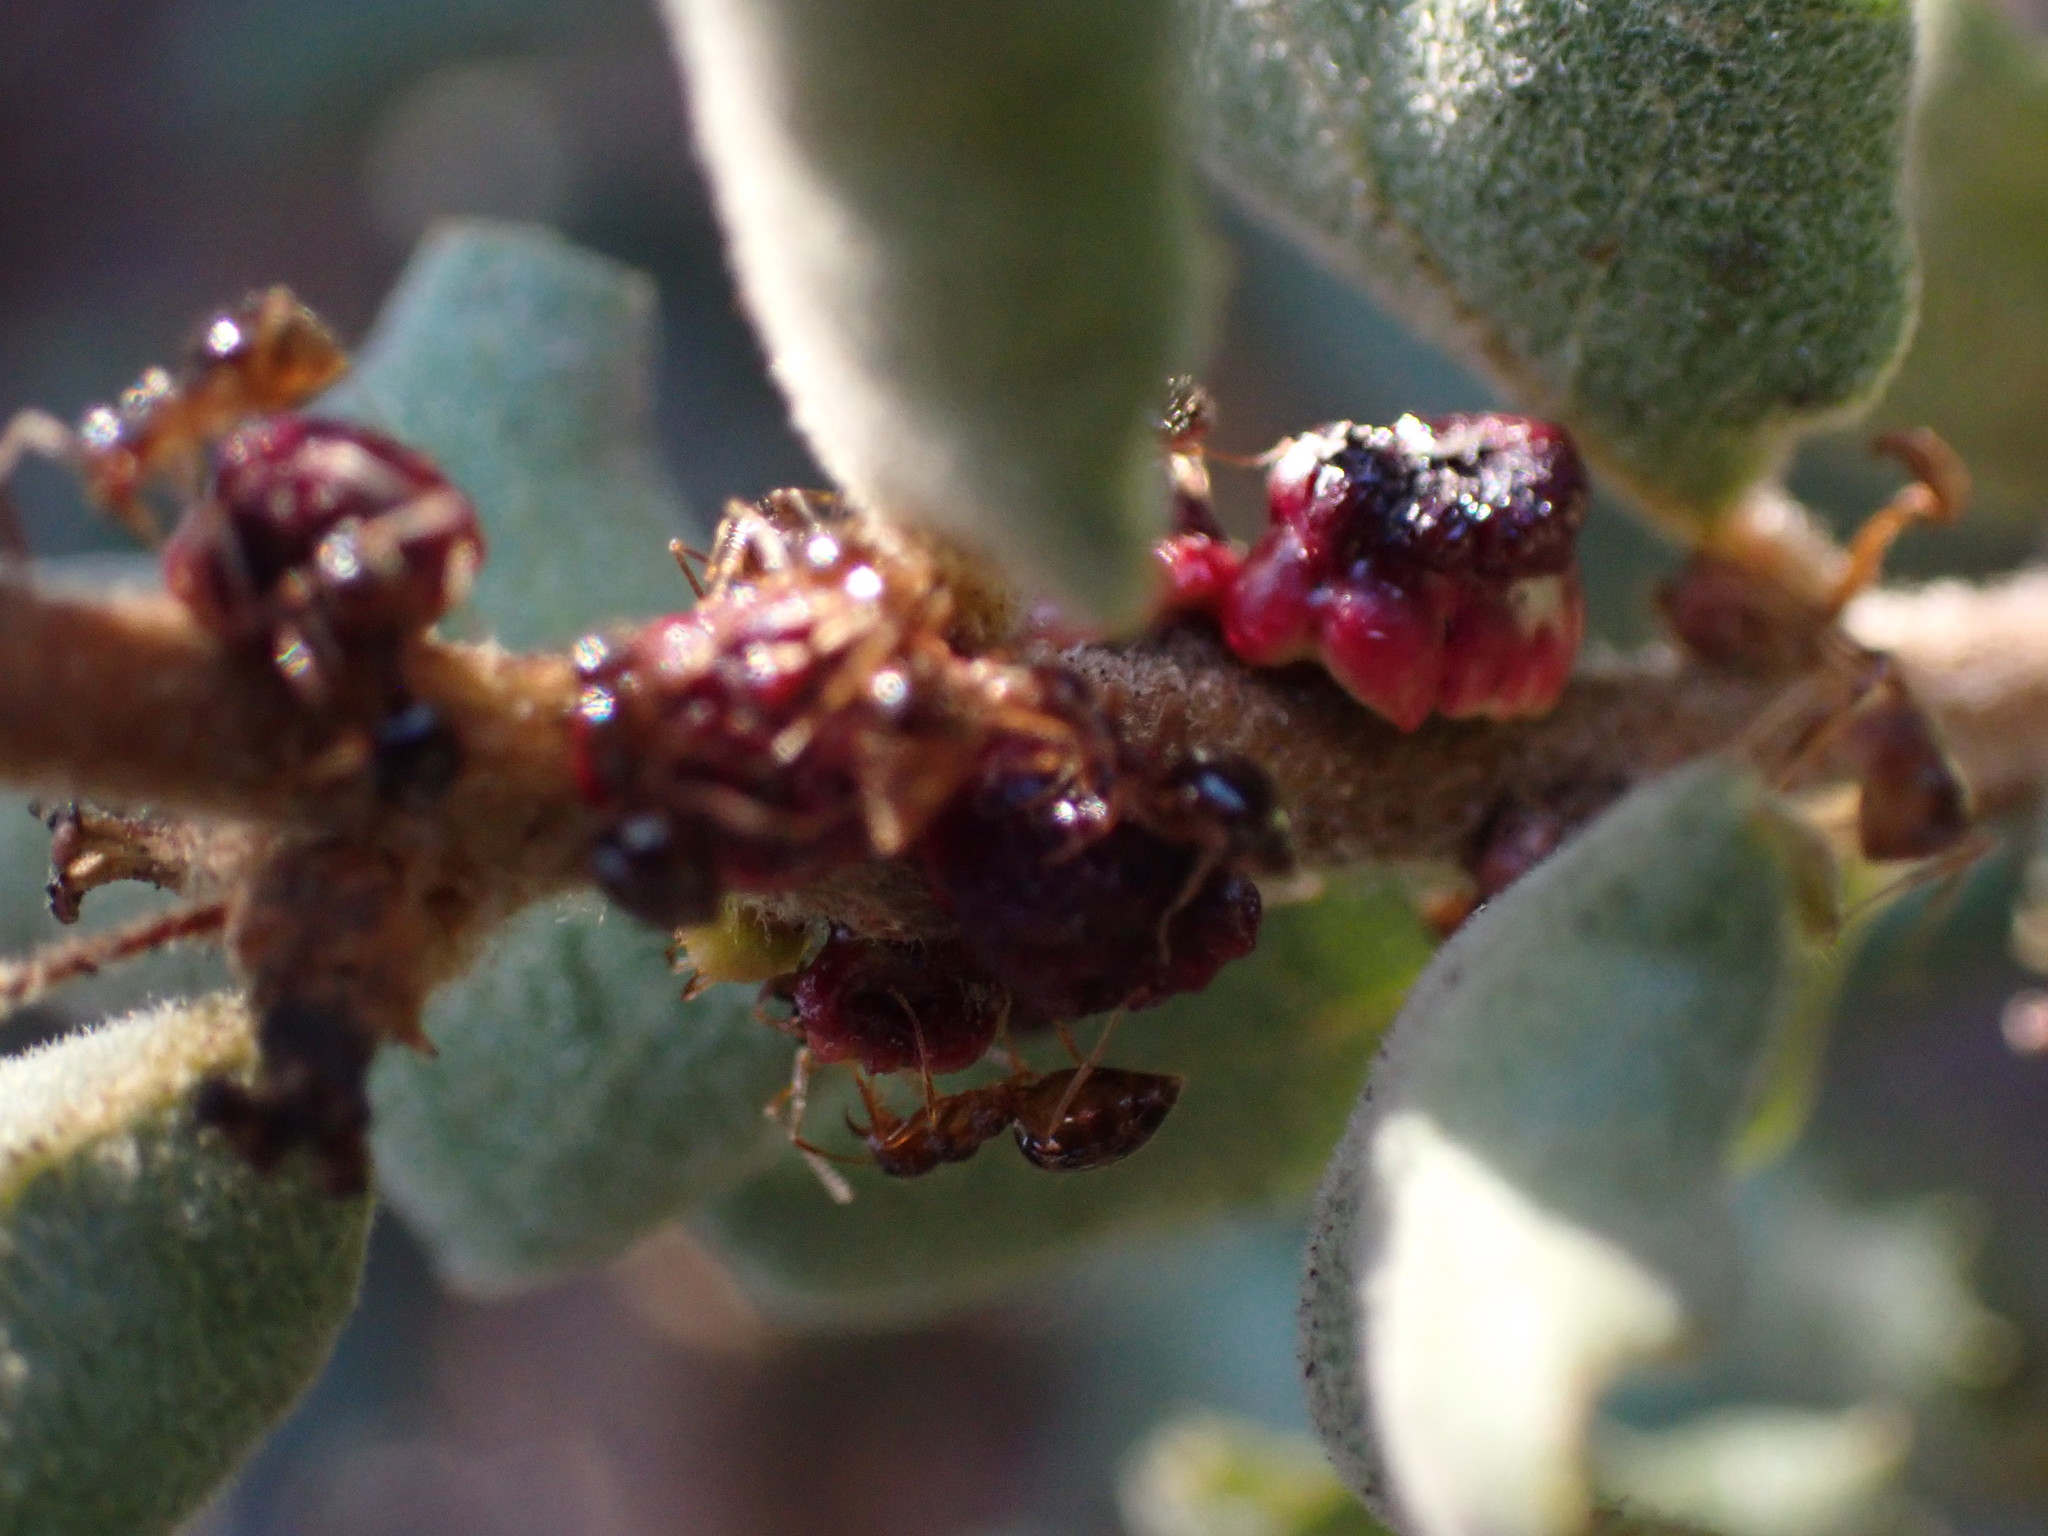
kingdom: Animalia
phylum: Arthropoda
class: Insecta
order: Hymenoptera
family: Cynipidae
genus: Disholcaspis
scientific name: Disholcaspis prehensa
